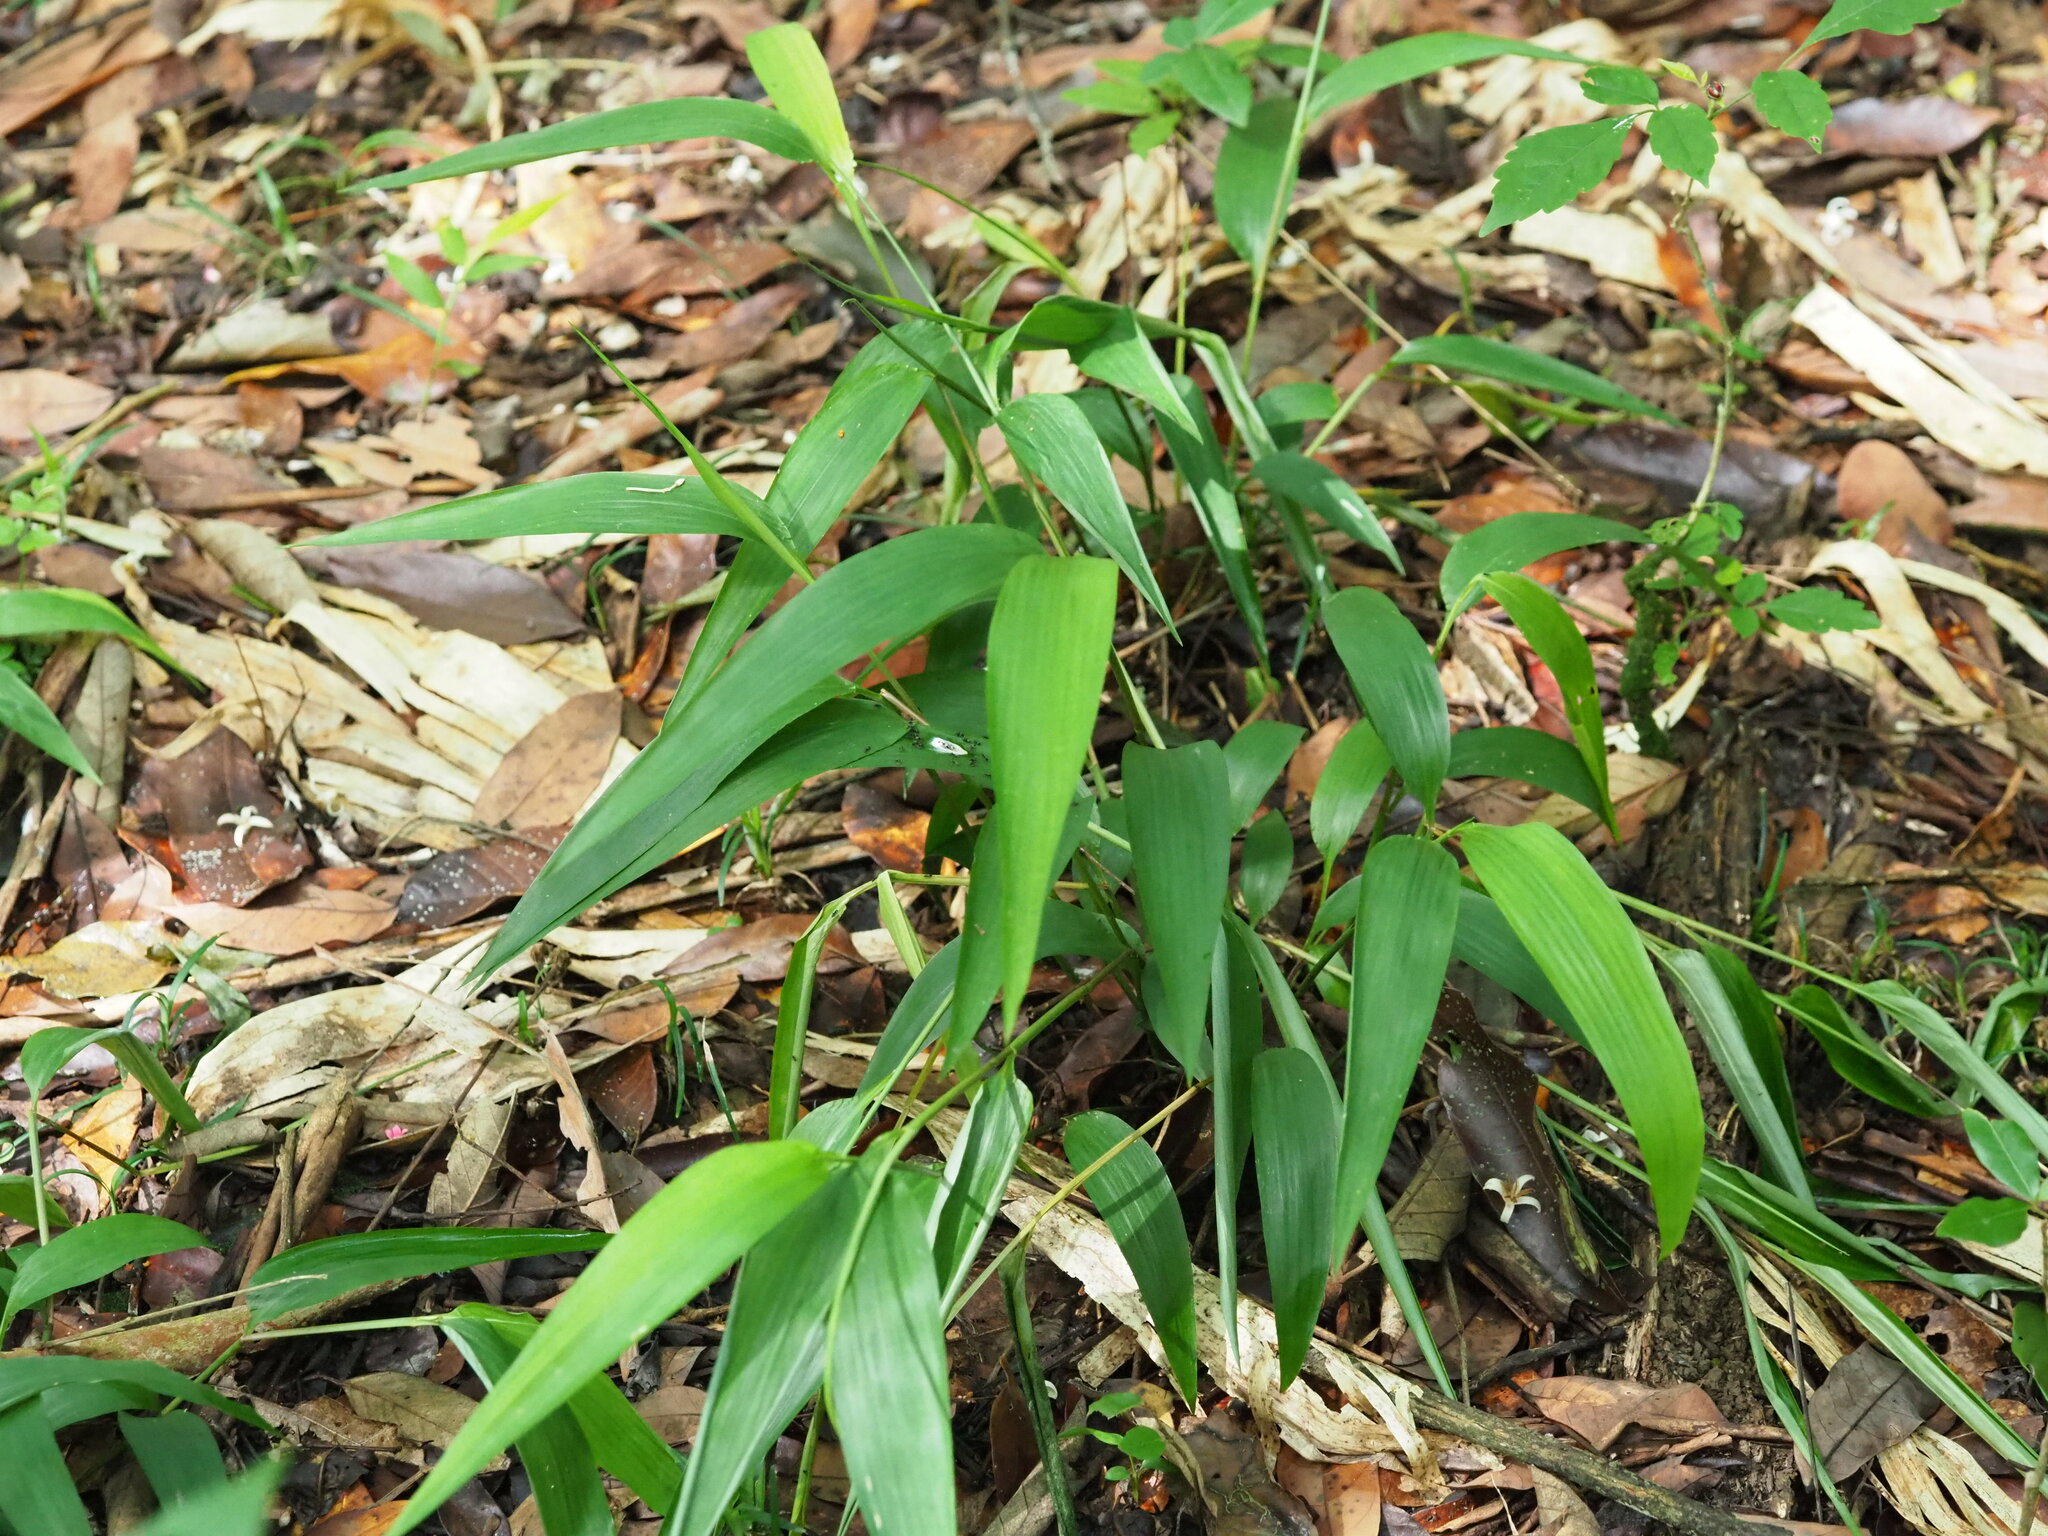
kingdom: Plantae
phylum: Tracheophyta
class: Liliopsida
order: Poales
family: Poaceae
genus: Lophatherum
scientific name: Lophatherum gracile
